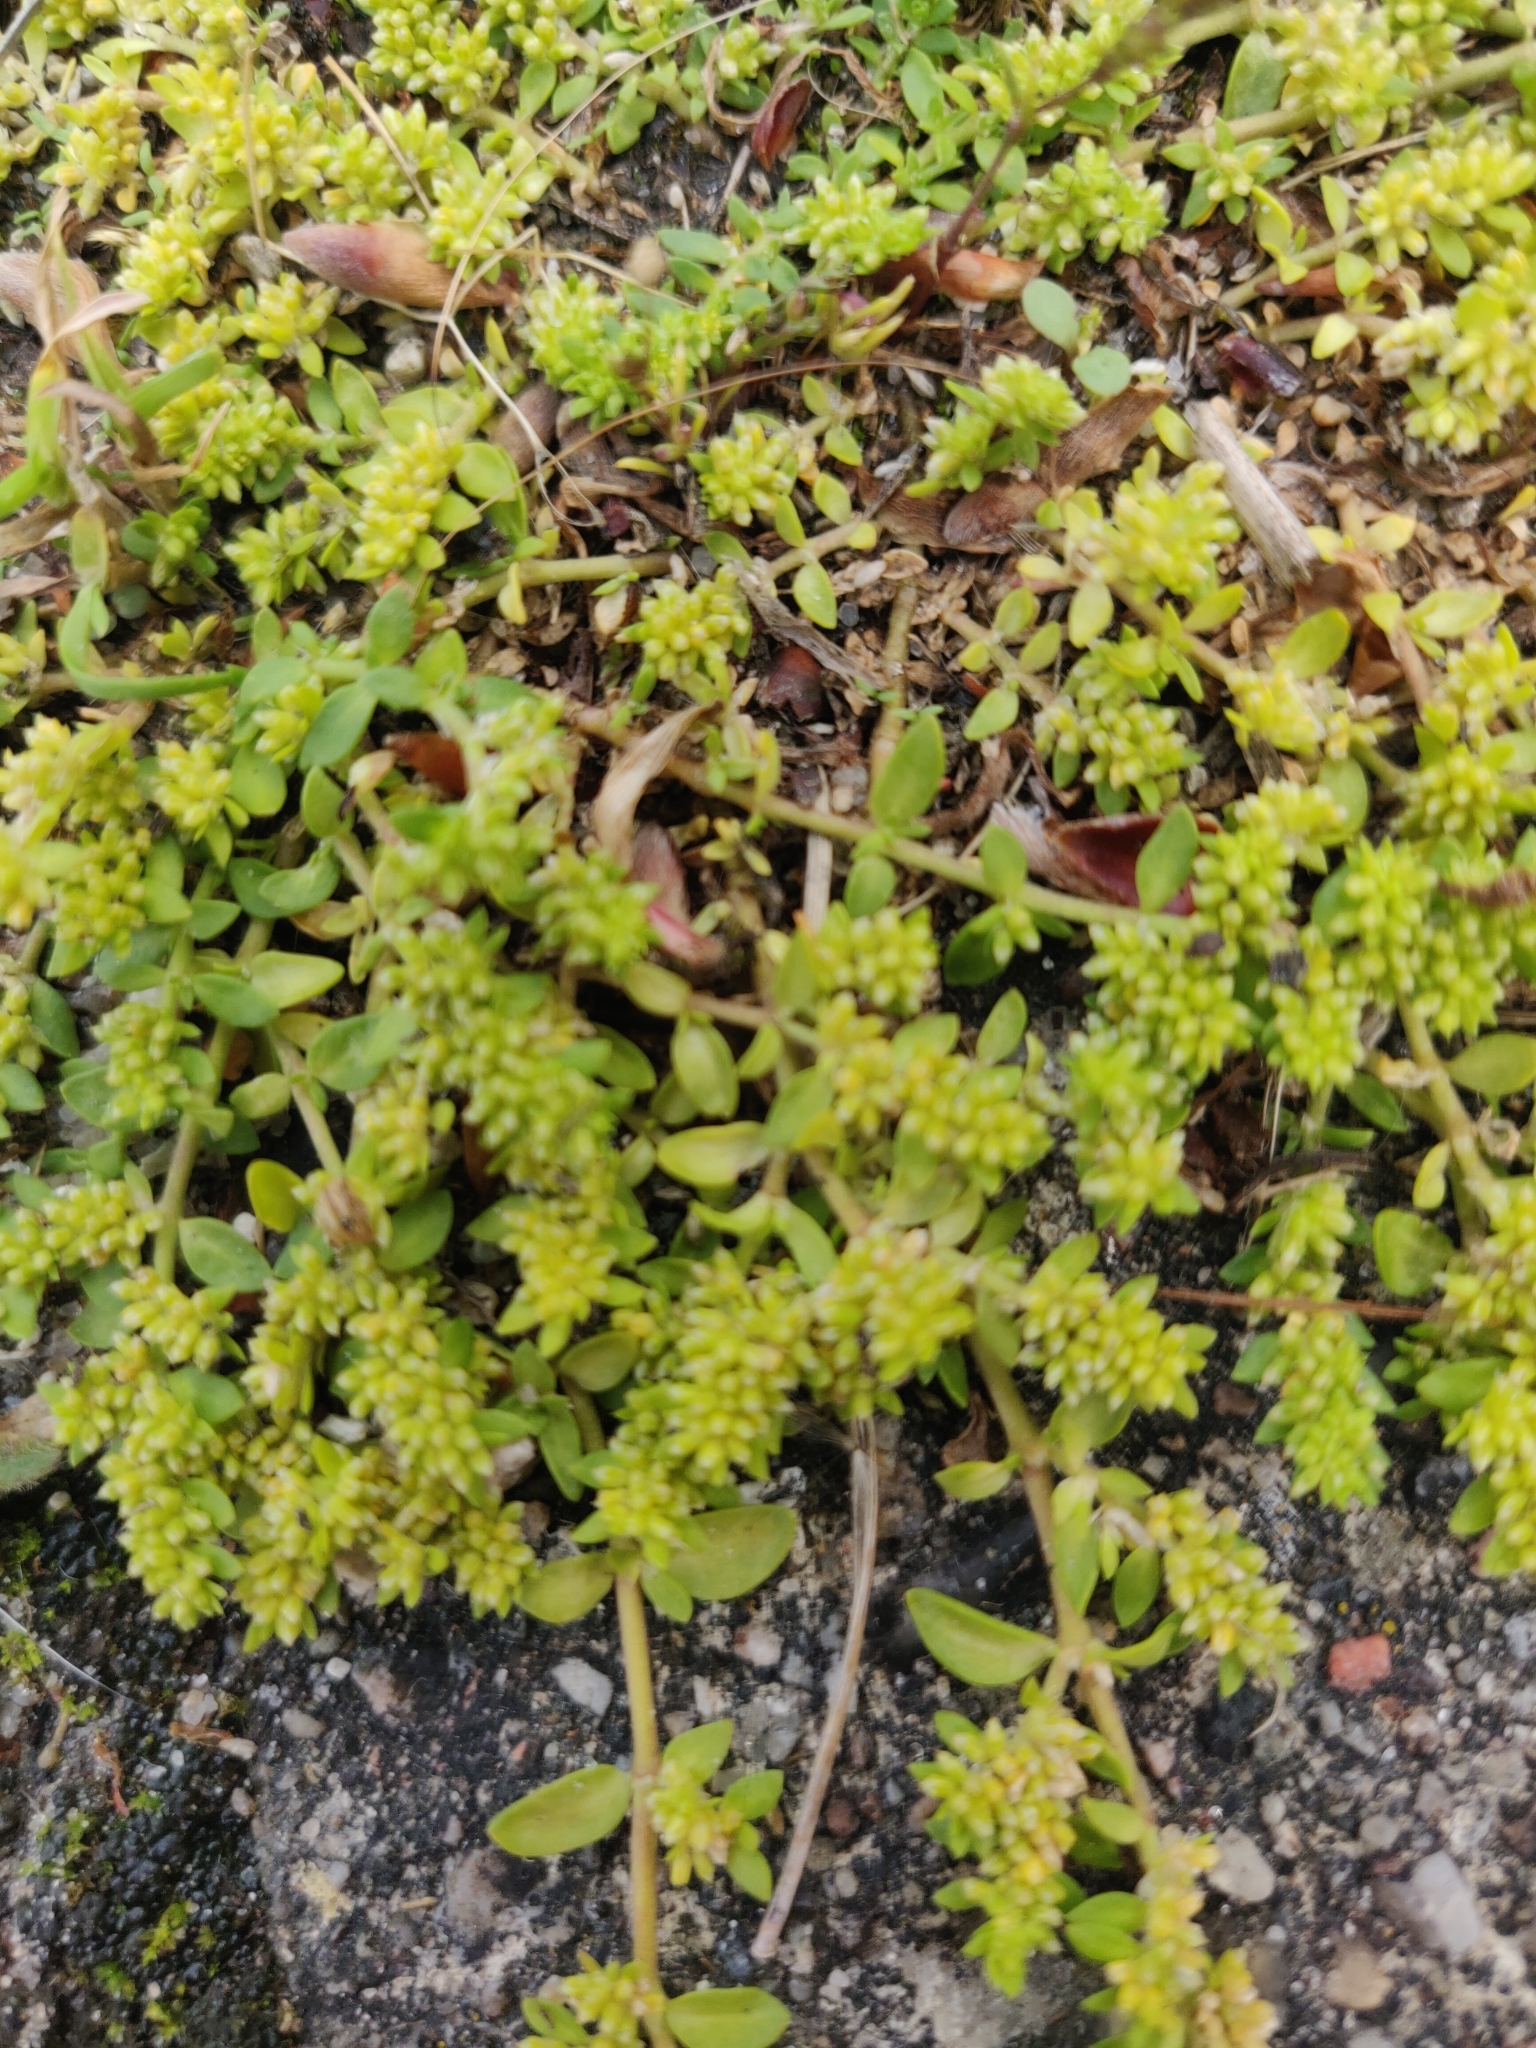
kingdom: Plantae
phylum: Tracheophyta
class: Magnoliopsida
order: Caryophyllales
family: Caryophyllaceae
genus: Herniaria
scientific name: Herniaria glabra
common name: Smooth rupturewort
